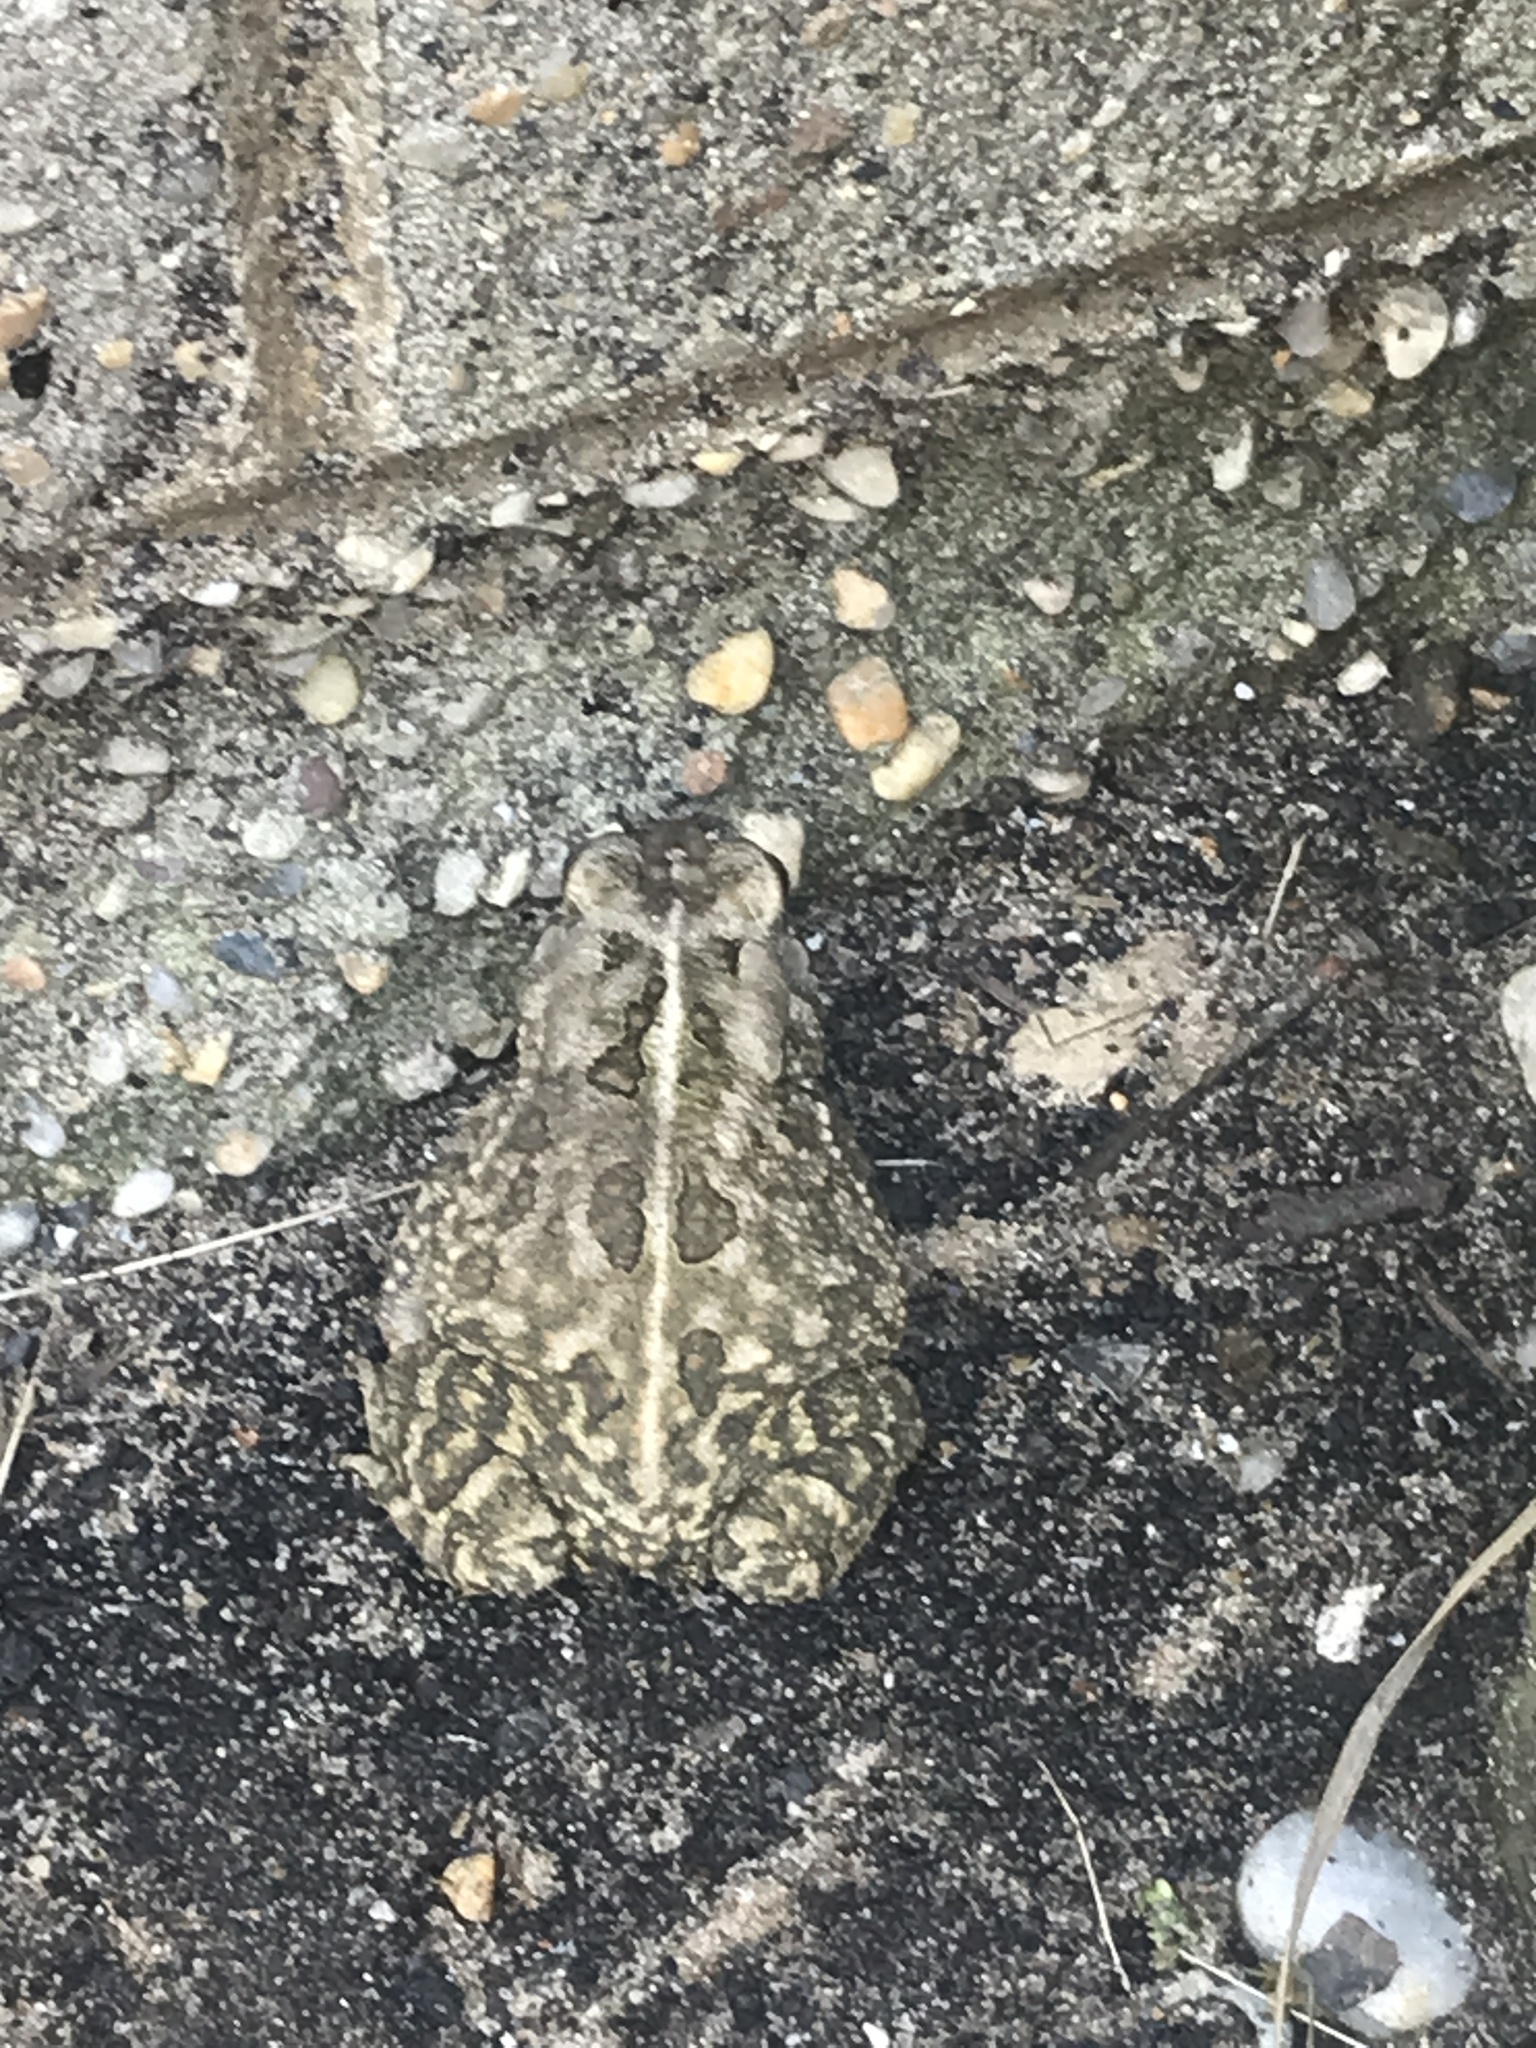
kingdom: Animalia
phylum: Chordata
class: Amphibia
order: Anura
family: Bufonidae
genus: Anaxyrus
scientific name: Anaxyrus fowleri
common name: Fowler's toad
